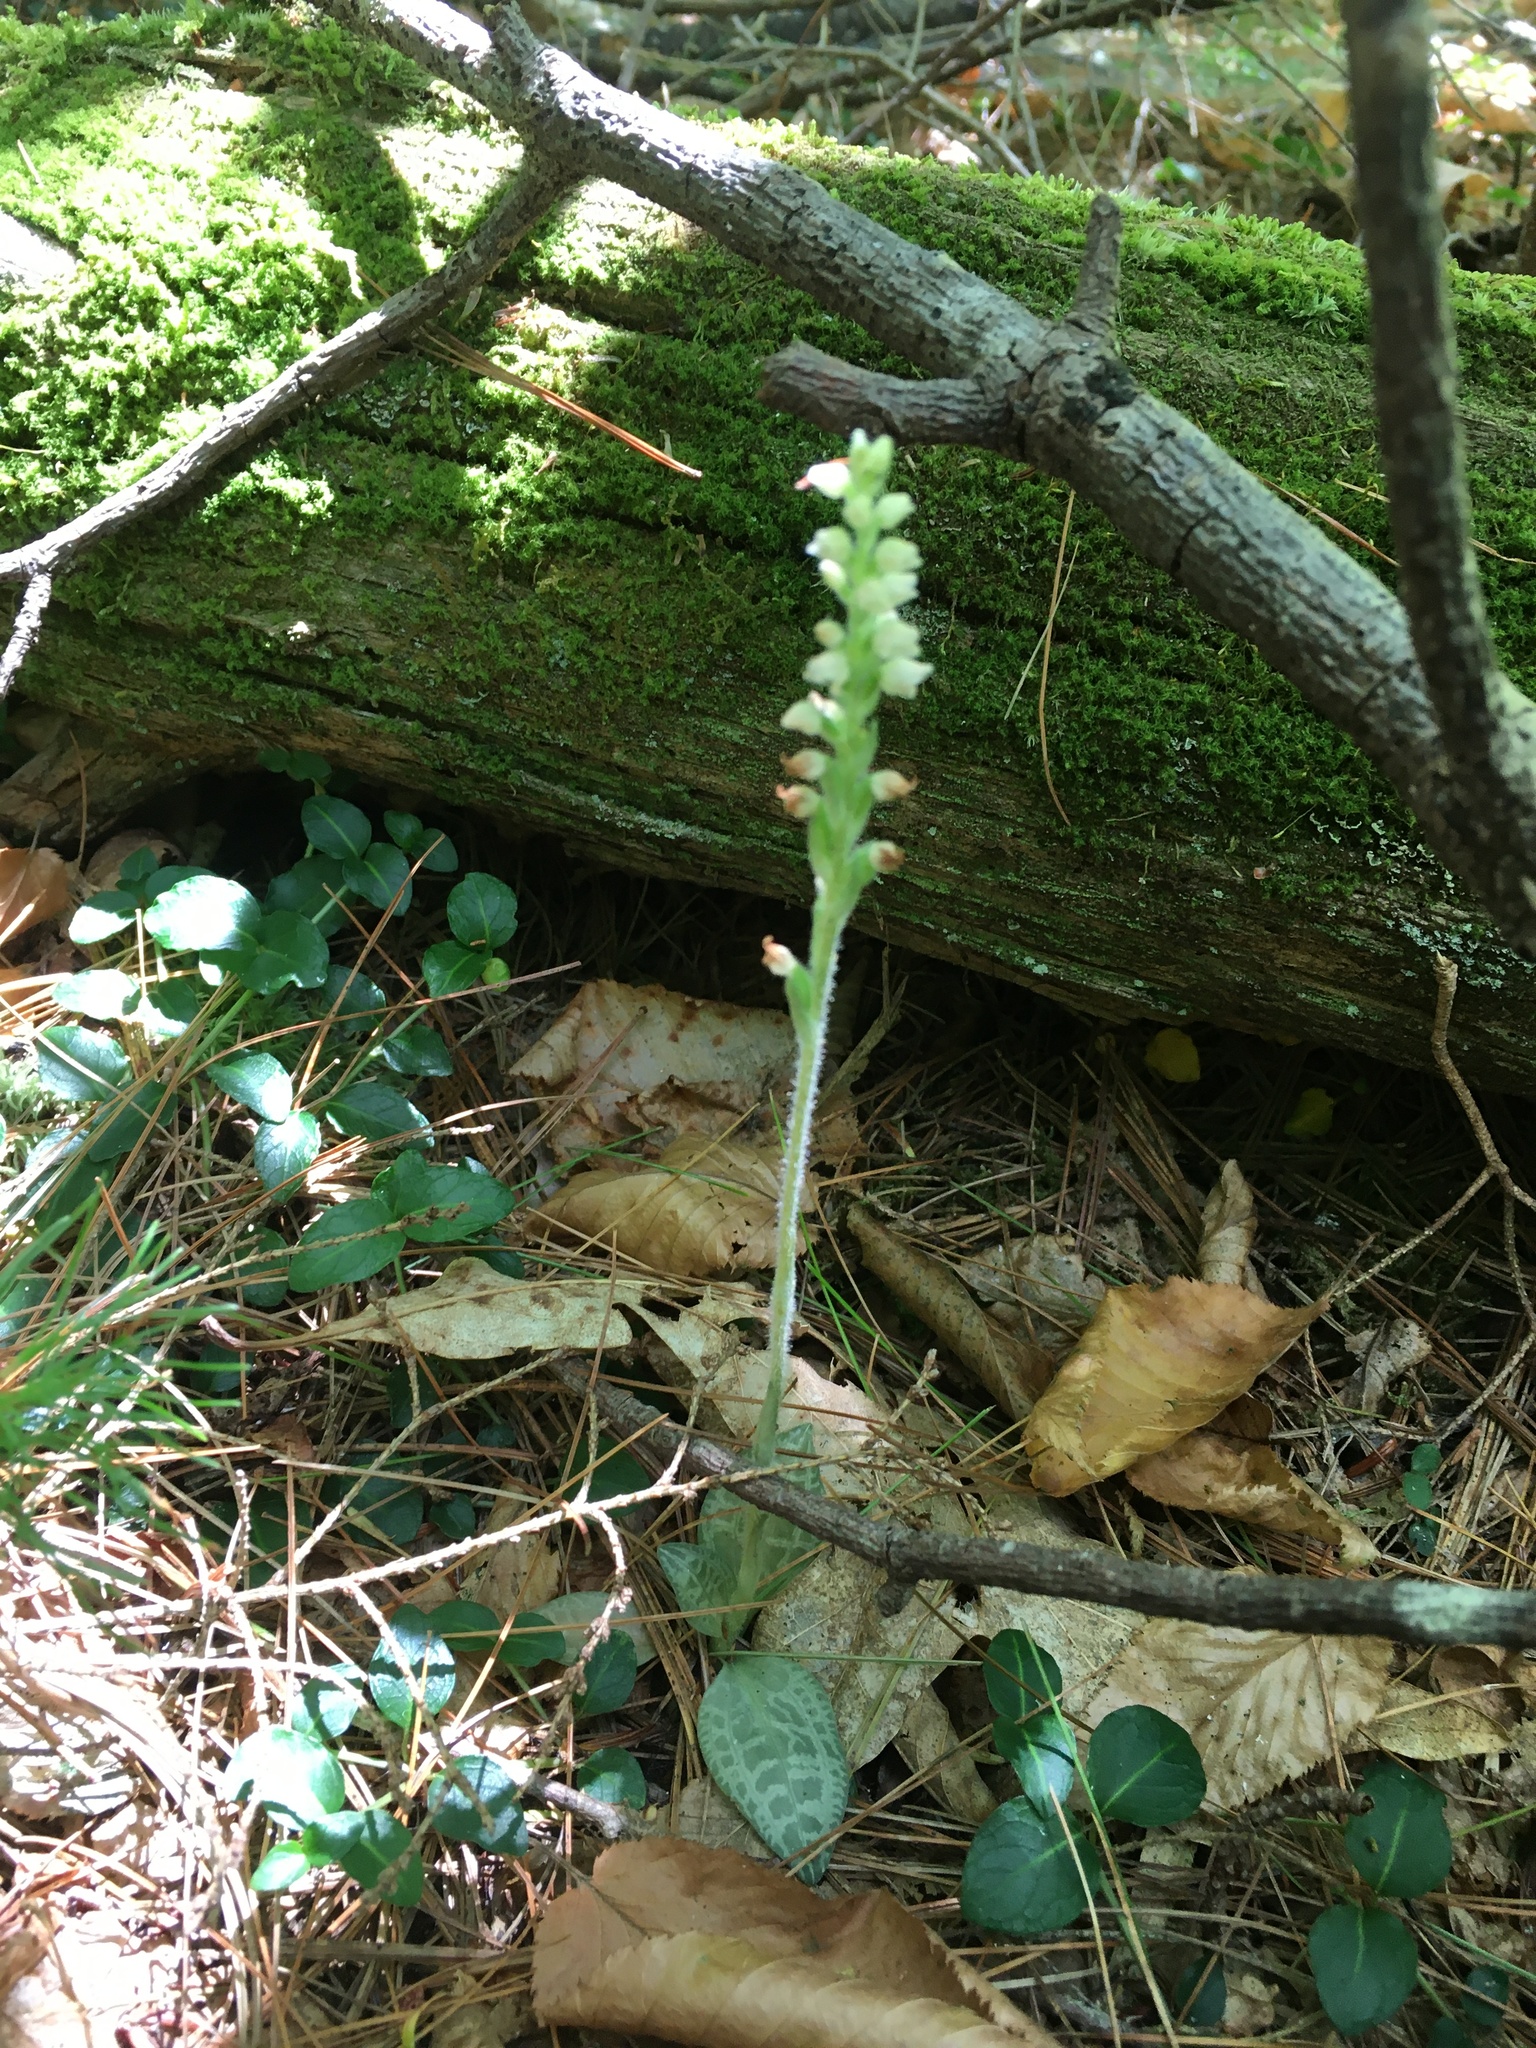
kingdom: Plantae
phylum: Tracheophyta
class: Liliopsida
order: Asparagales
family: Orchidaceae
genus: Goodyera
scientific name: Goodyera tesselata
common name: Checkered rattlesnake-plantain
